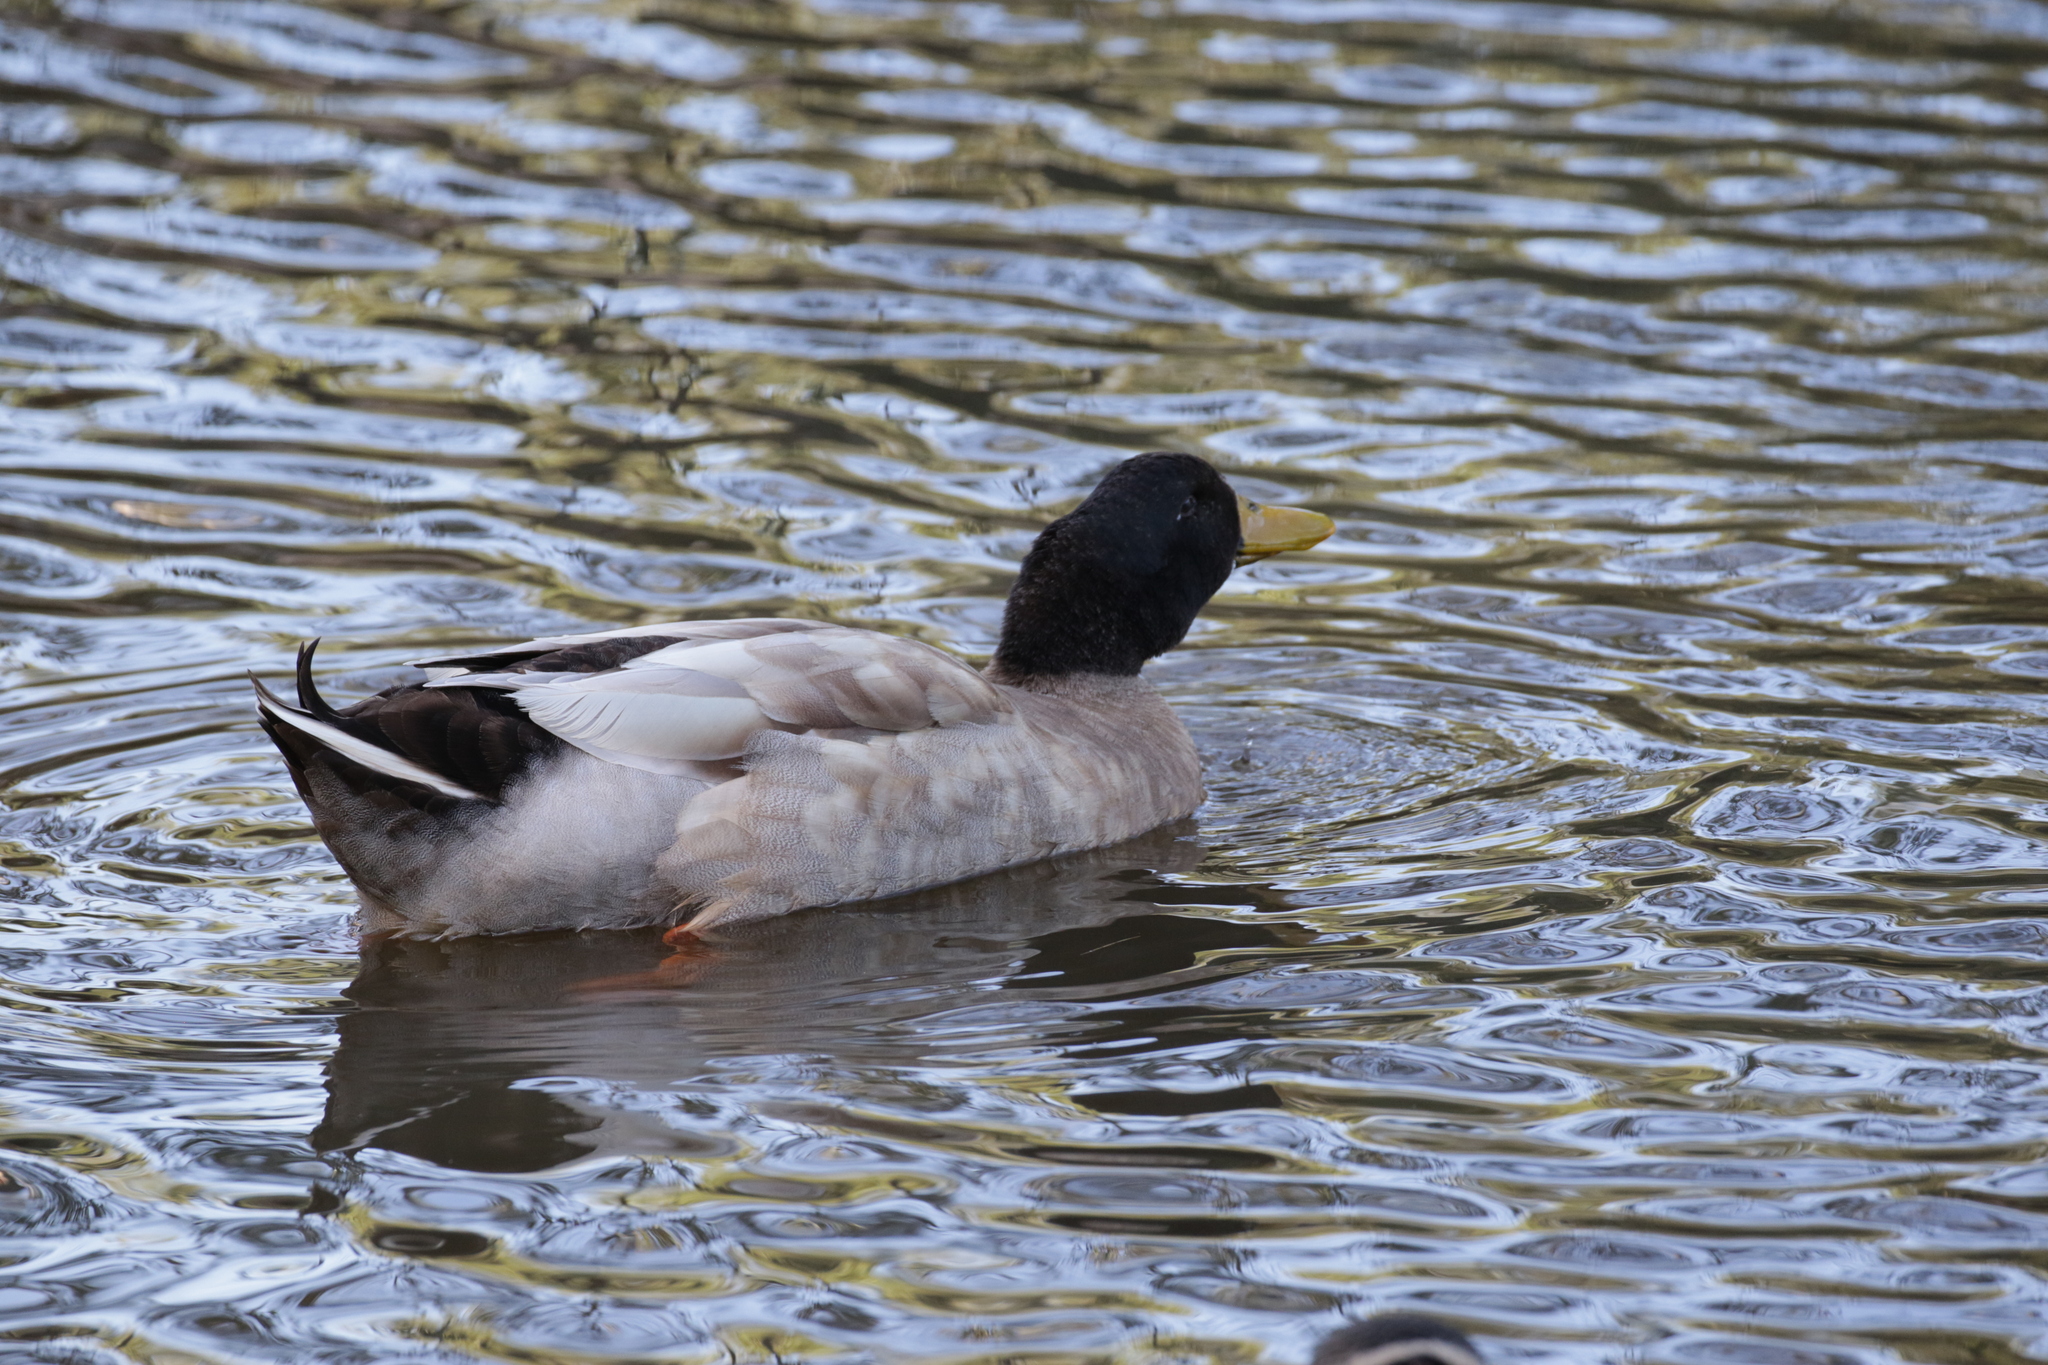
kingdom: Animalia
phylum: Chordata
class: Aves
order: Anseriformes
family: Anatidae
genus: Anas
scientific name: Anas platyrhynchos
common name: Mallard
